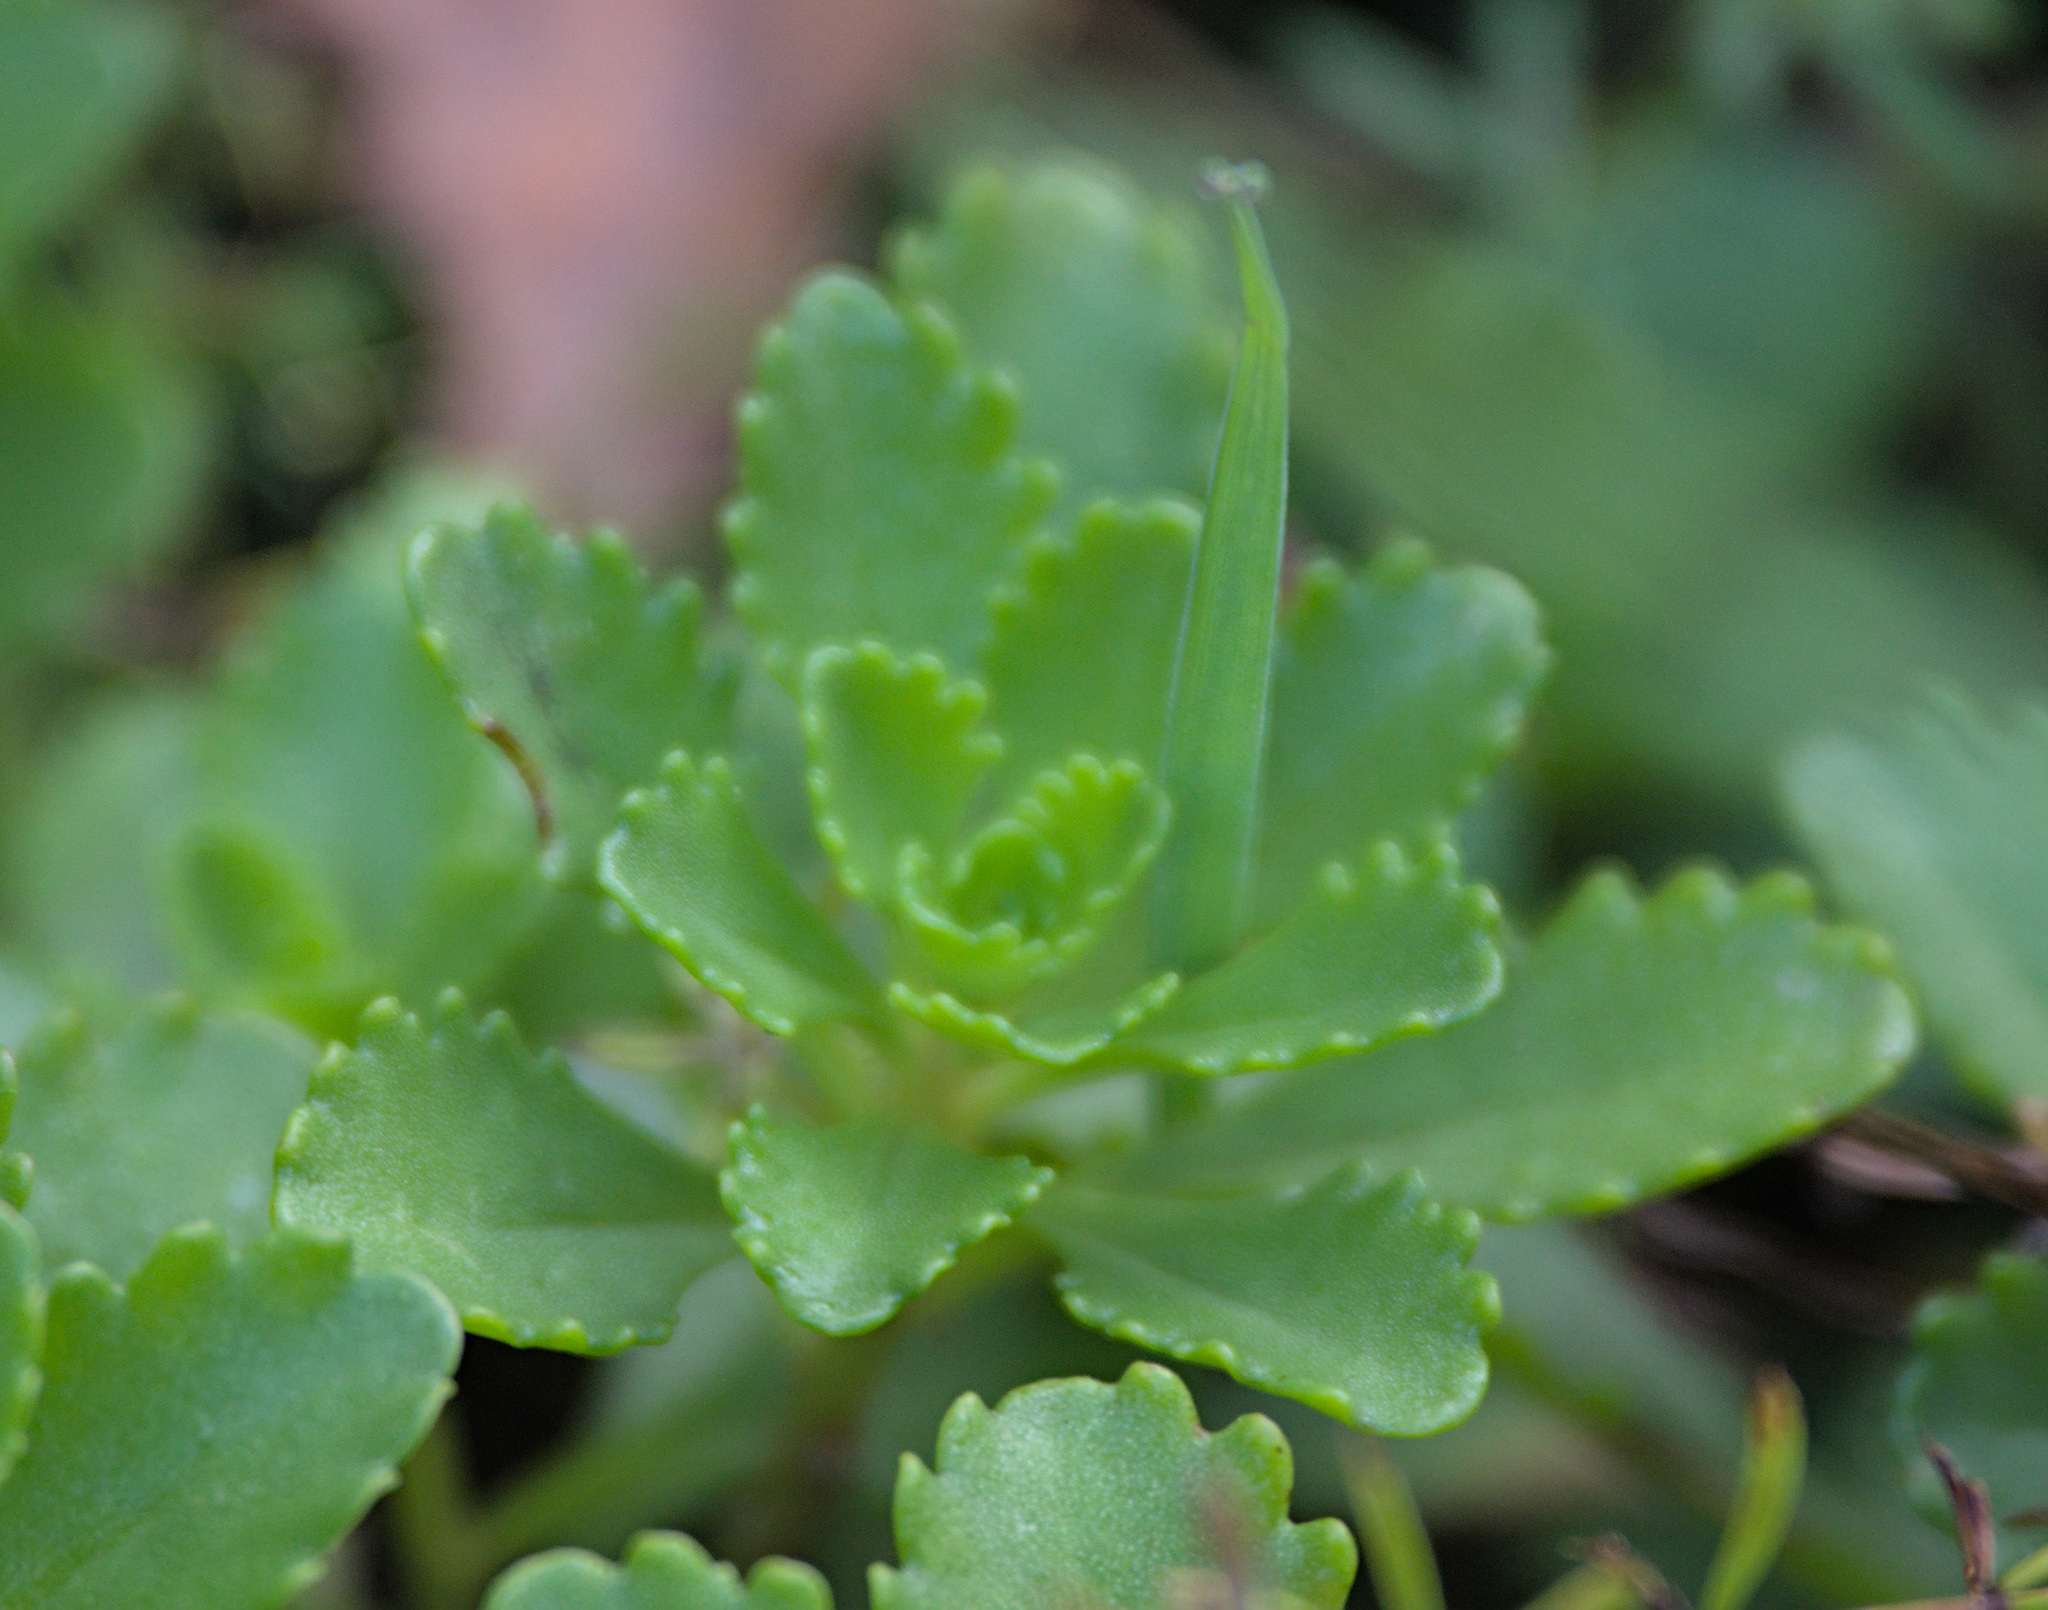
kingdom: Plantae
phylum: Tracheophyta
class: Magnoliopsida
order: Saxifragales
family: Crassulaceae
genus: Phedimus
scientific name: Phedimus hybridus
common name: Hybrid stonecrop
